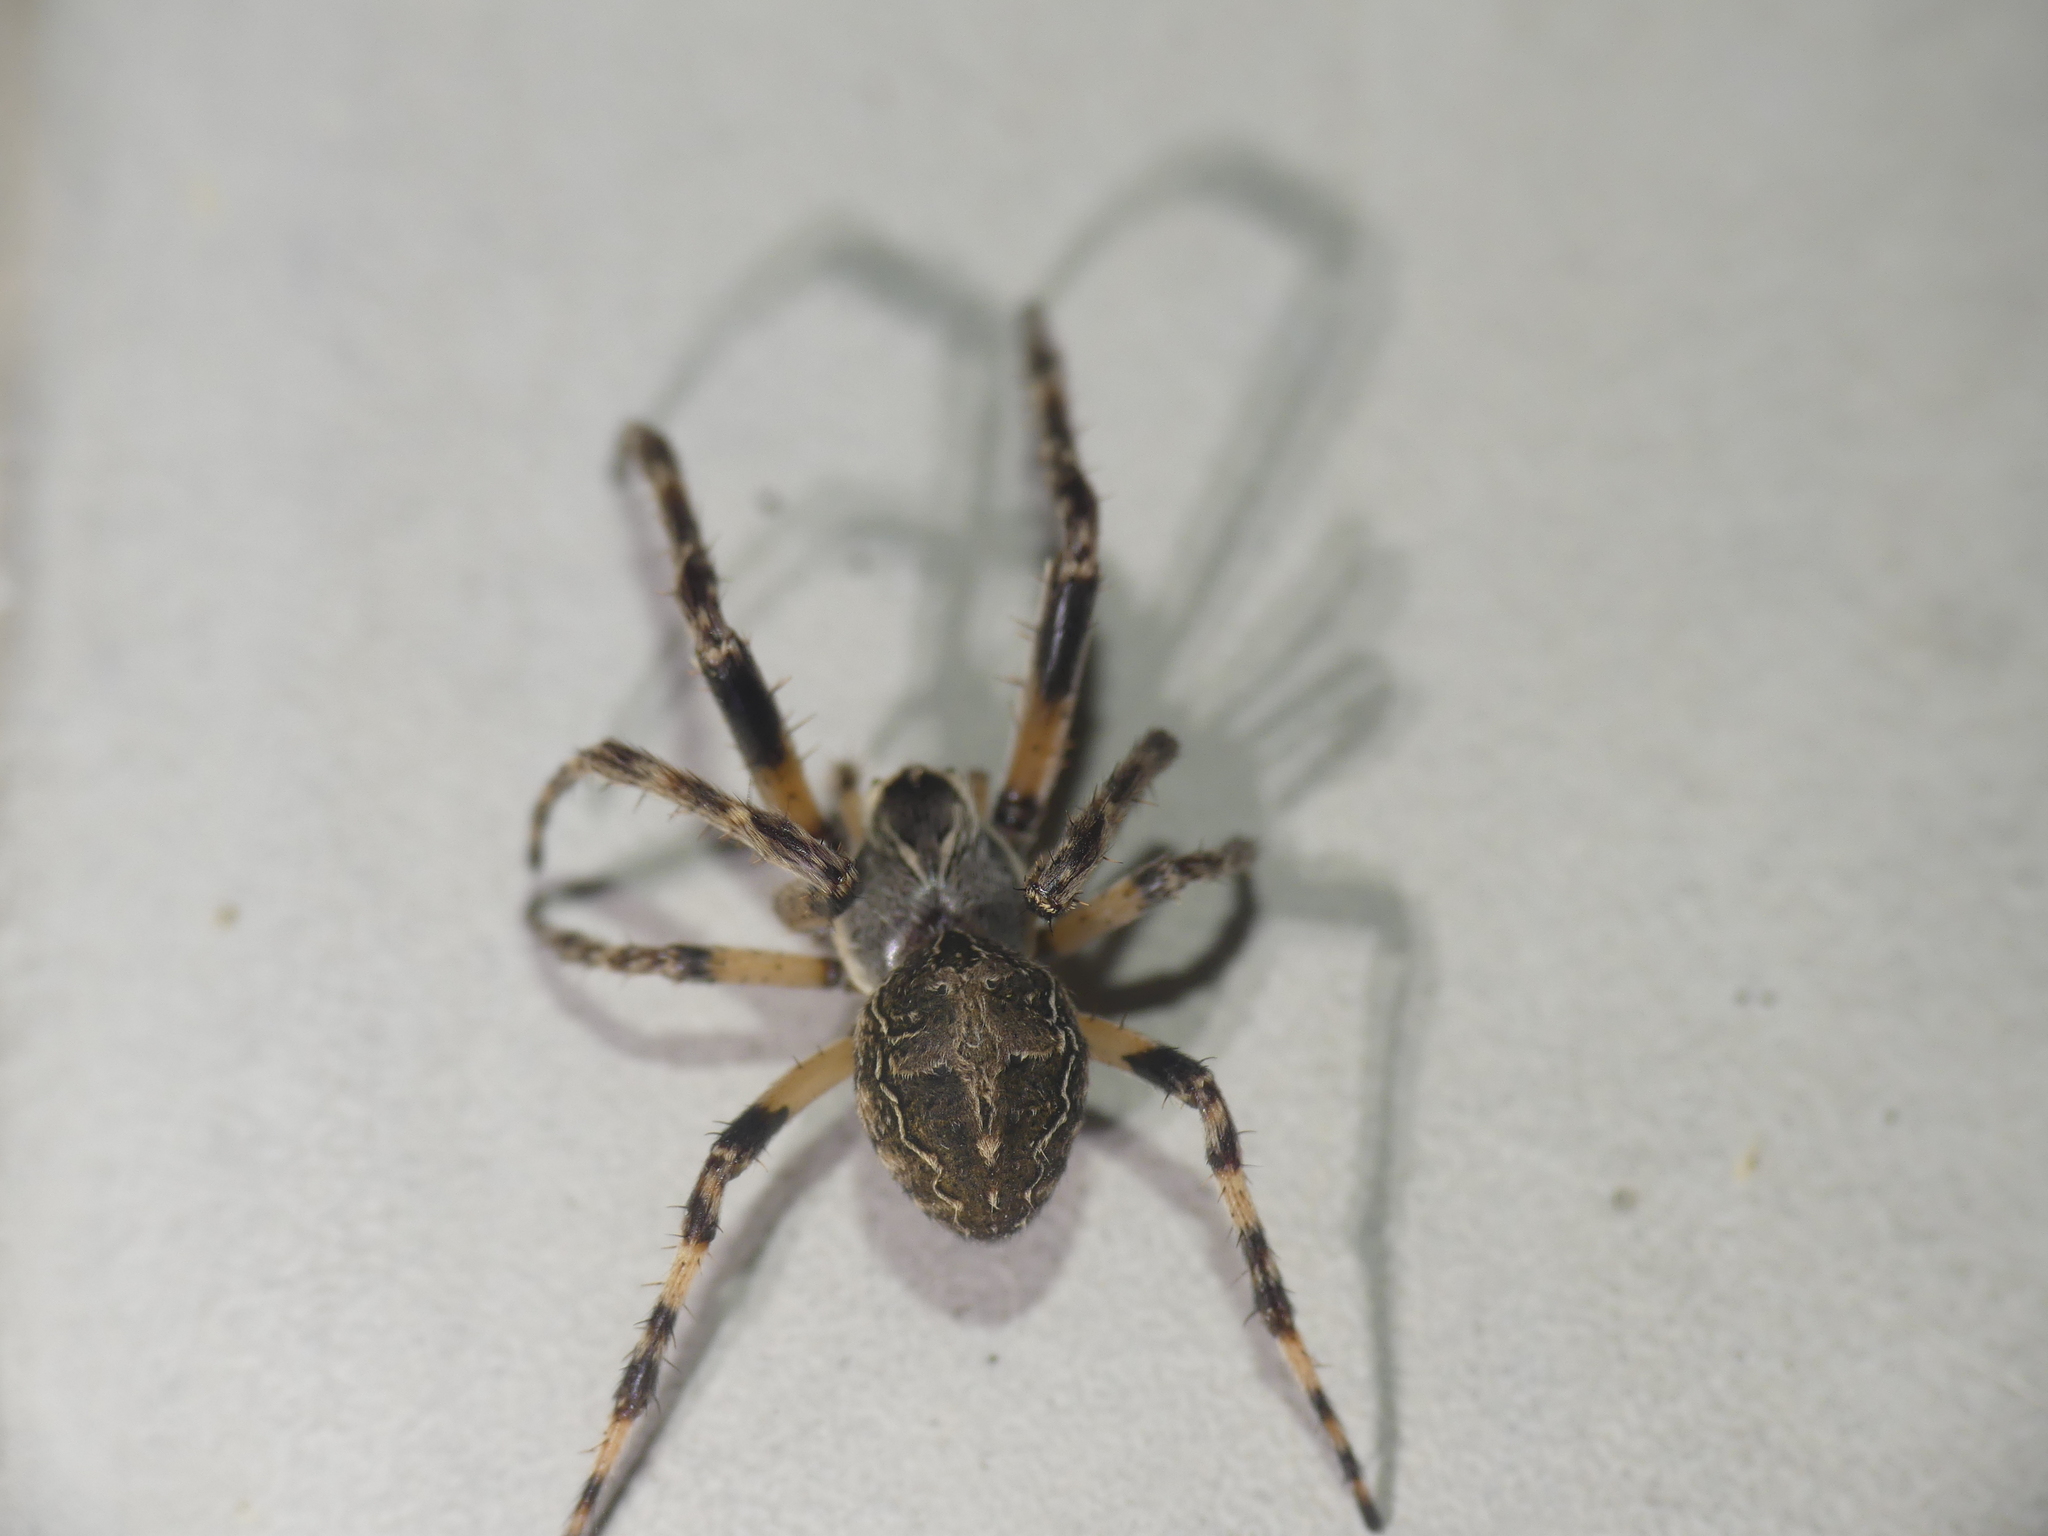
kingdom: Animalia
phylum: Arthropoda
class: Arachnida
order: Araneae
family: Araneidae
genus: Larinioides
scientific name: Larinioides sclopetarius
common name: Bridge orbweaver
